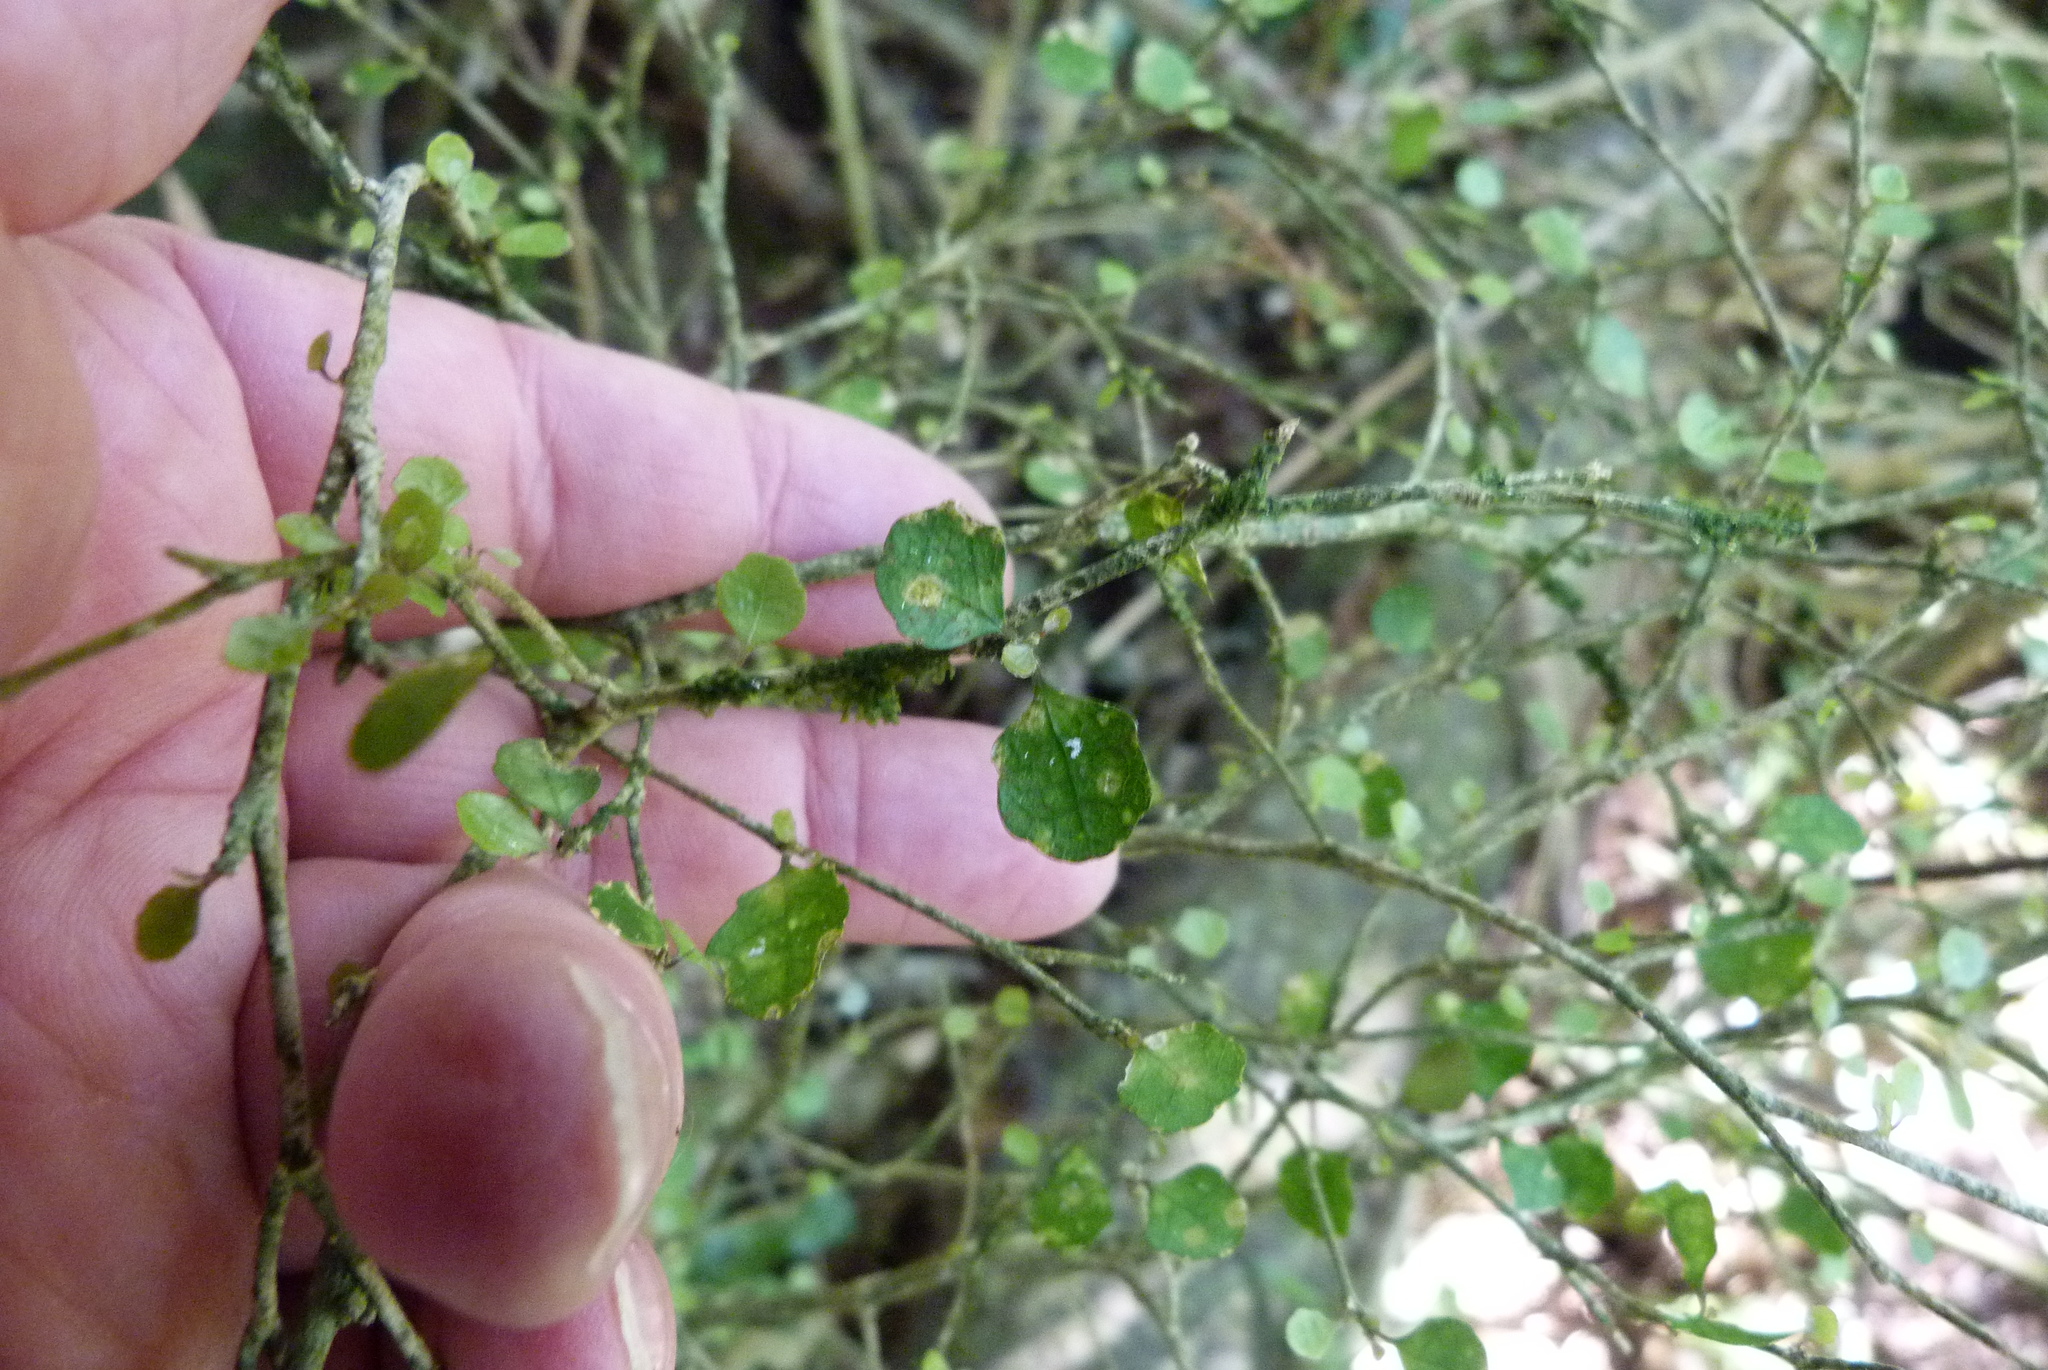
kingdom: Plantae
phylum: Tracheophyta
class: Magnoliopsida
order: Malpighiales
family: Violaceae
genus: Melicytus
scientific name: Melicytus micranthus
